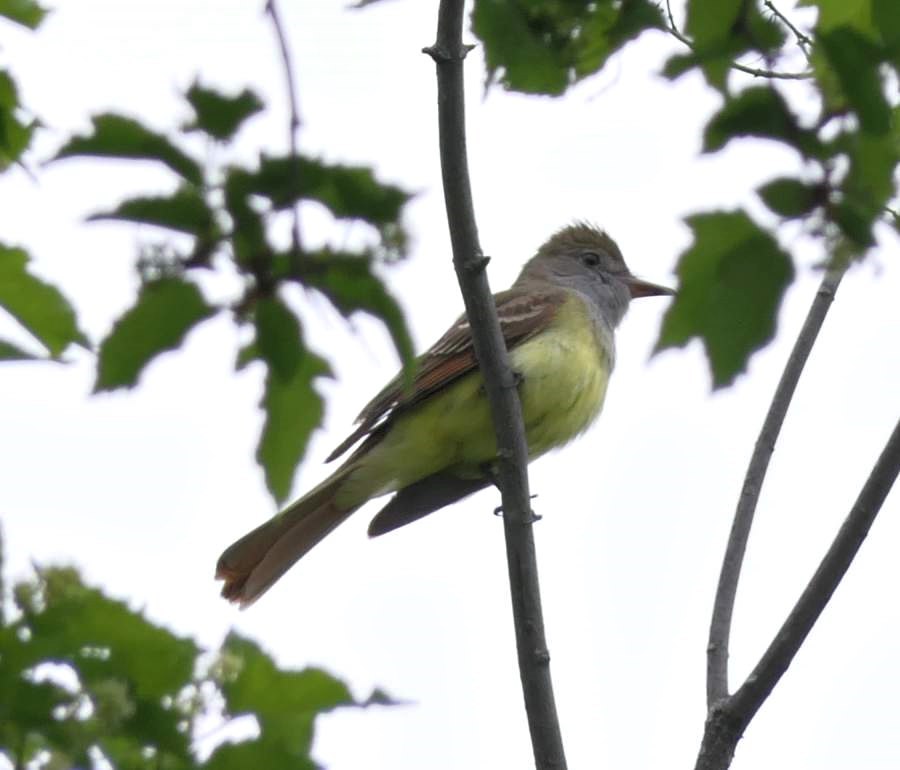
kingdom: Animalia
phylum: Chordata
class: Aves
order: Passeriformes
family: Tyrannidae
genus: Myiarchus
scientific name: Myiarchus crinitus
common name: Great crested flycatcher
